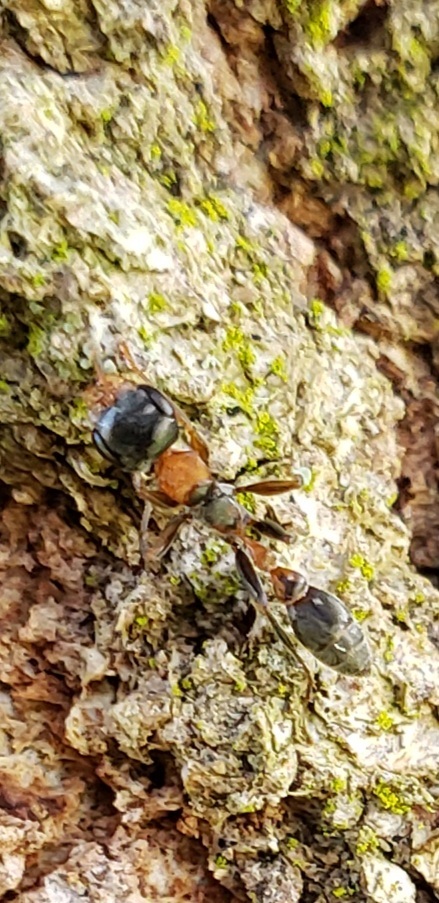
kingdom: Animalia
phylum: Arthropoda
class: Insecta
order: Hymenoptera
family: Formicidae
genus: Pseudomyrmex
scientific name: Pseudomyrmex gracilis
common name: Graceful twig ant
